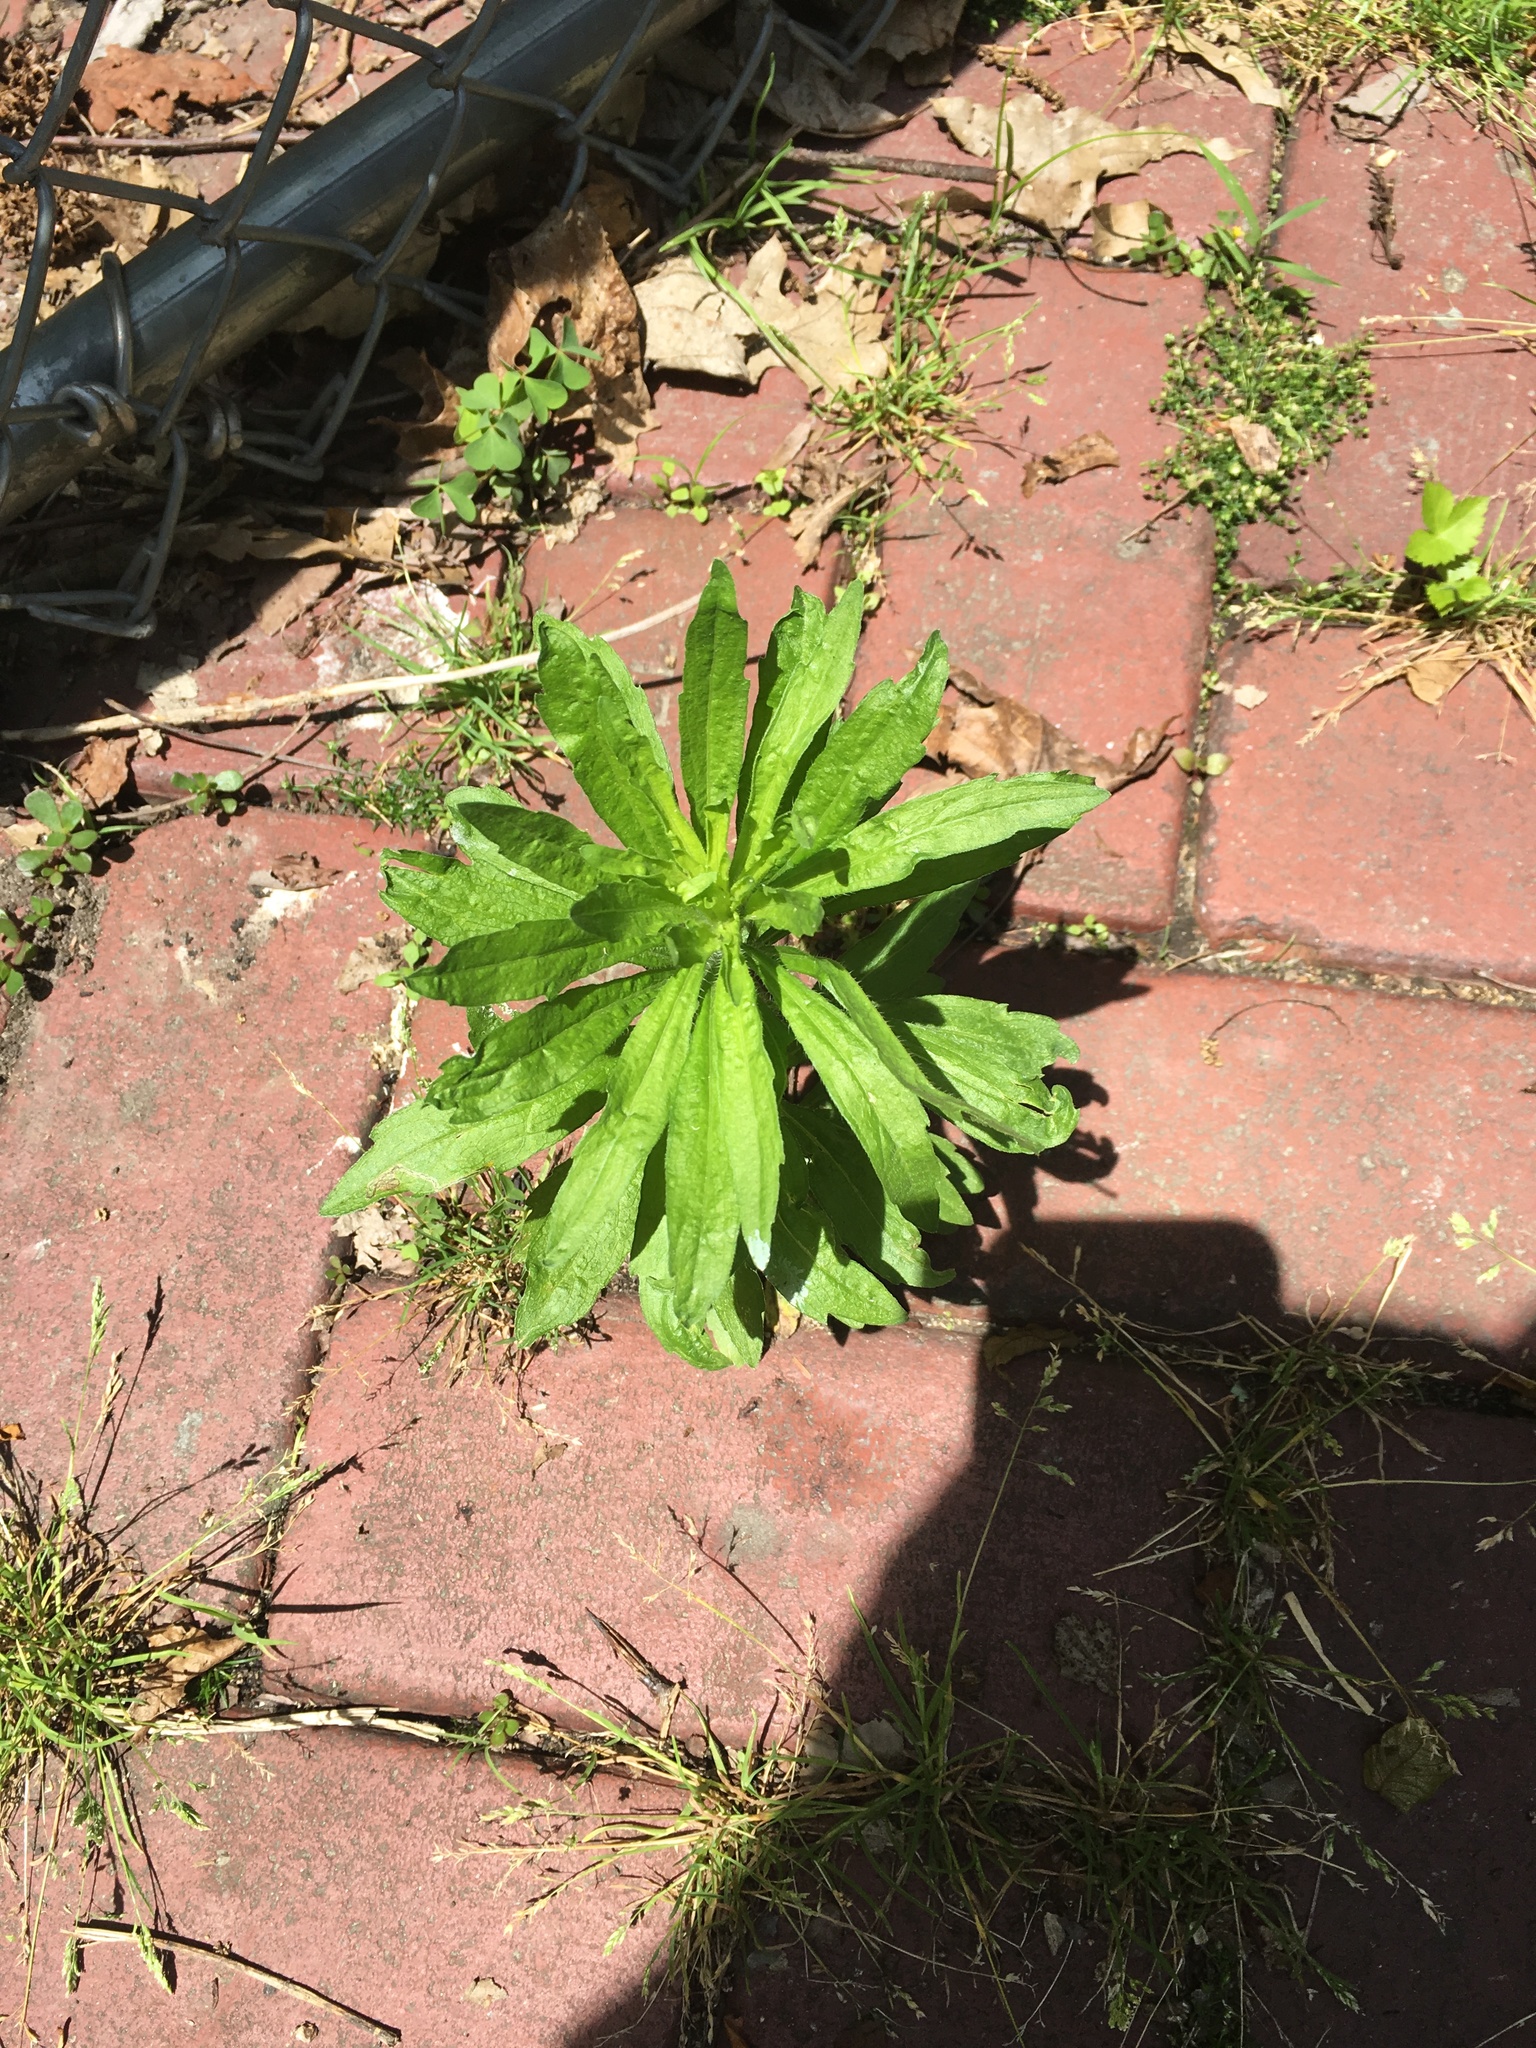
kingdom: Plantae
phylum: Tracheophyta
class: Magnoliopsida
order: Asterales
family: Asteraceae
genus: Erigeron
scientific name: Erigeron canadensis
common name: Canadian fleabane
